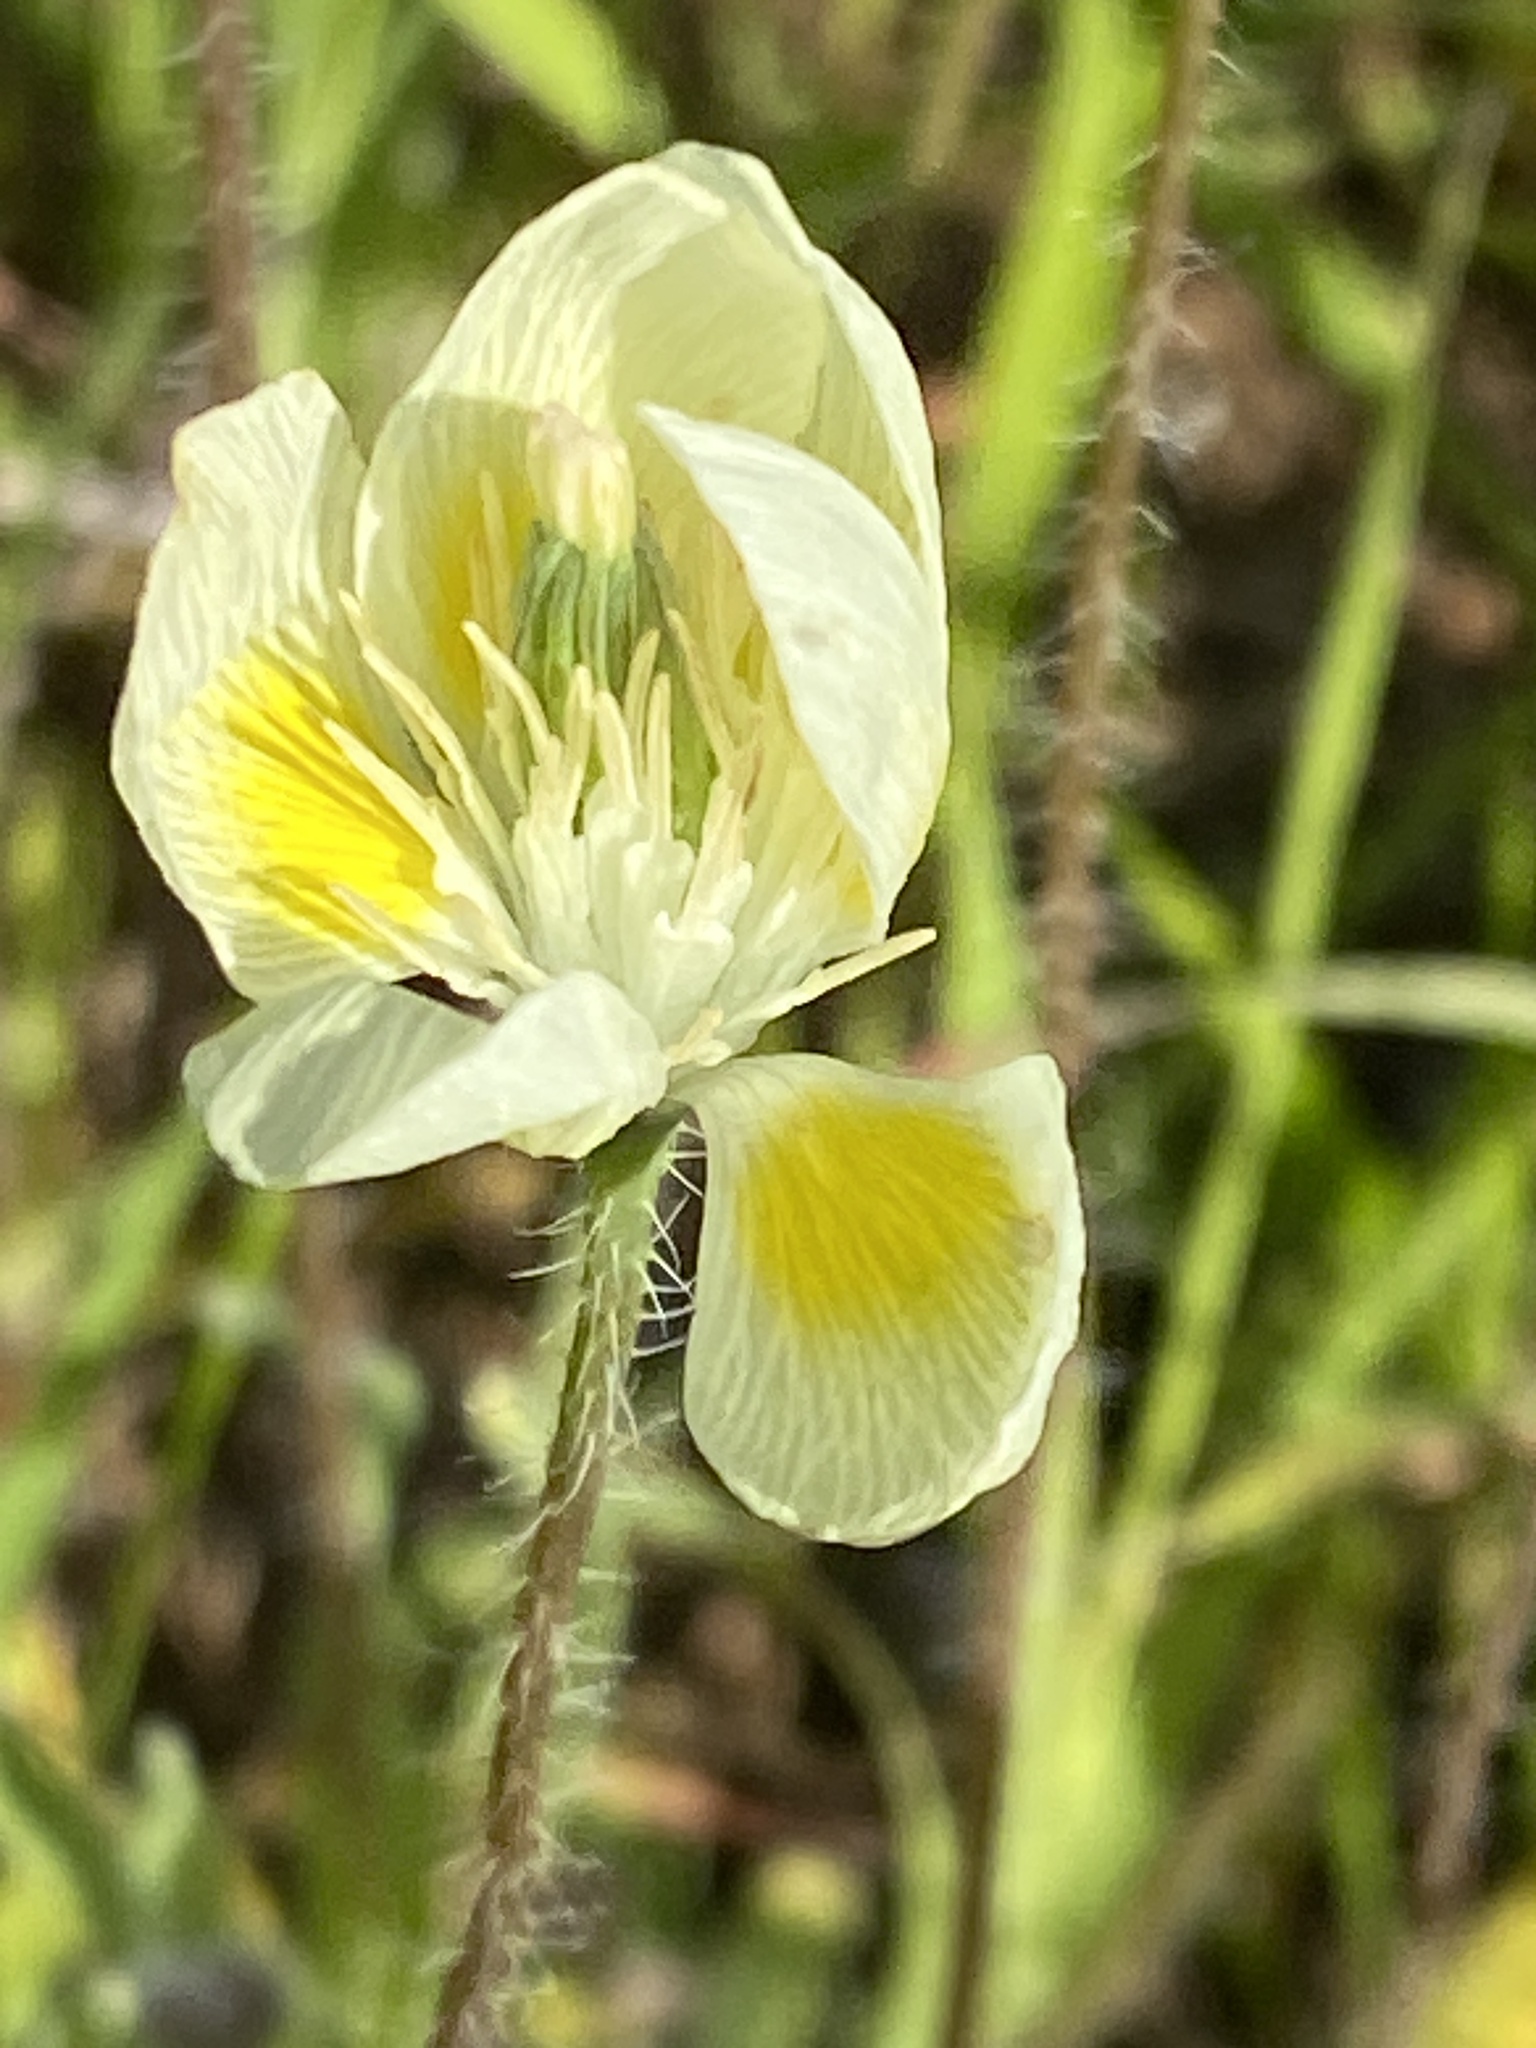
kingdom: Plantae
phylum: Tracheophyta
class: Magnoliopsida
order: Ranunculales
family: Papaveraceae
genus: Platystemon
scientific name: Platystemon californicus
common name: Cream-cups
